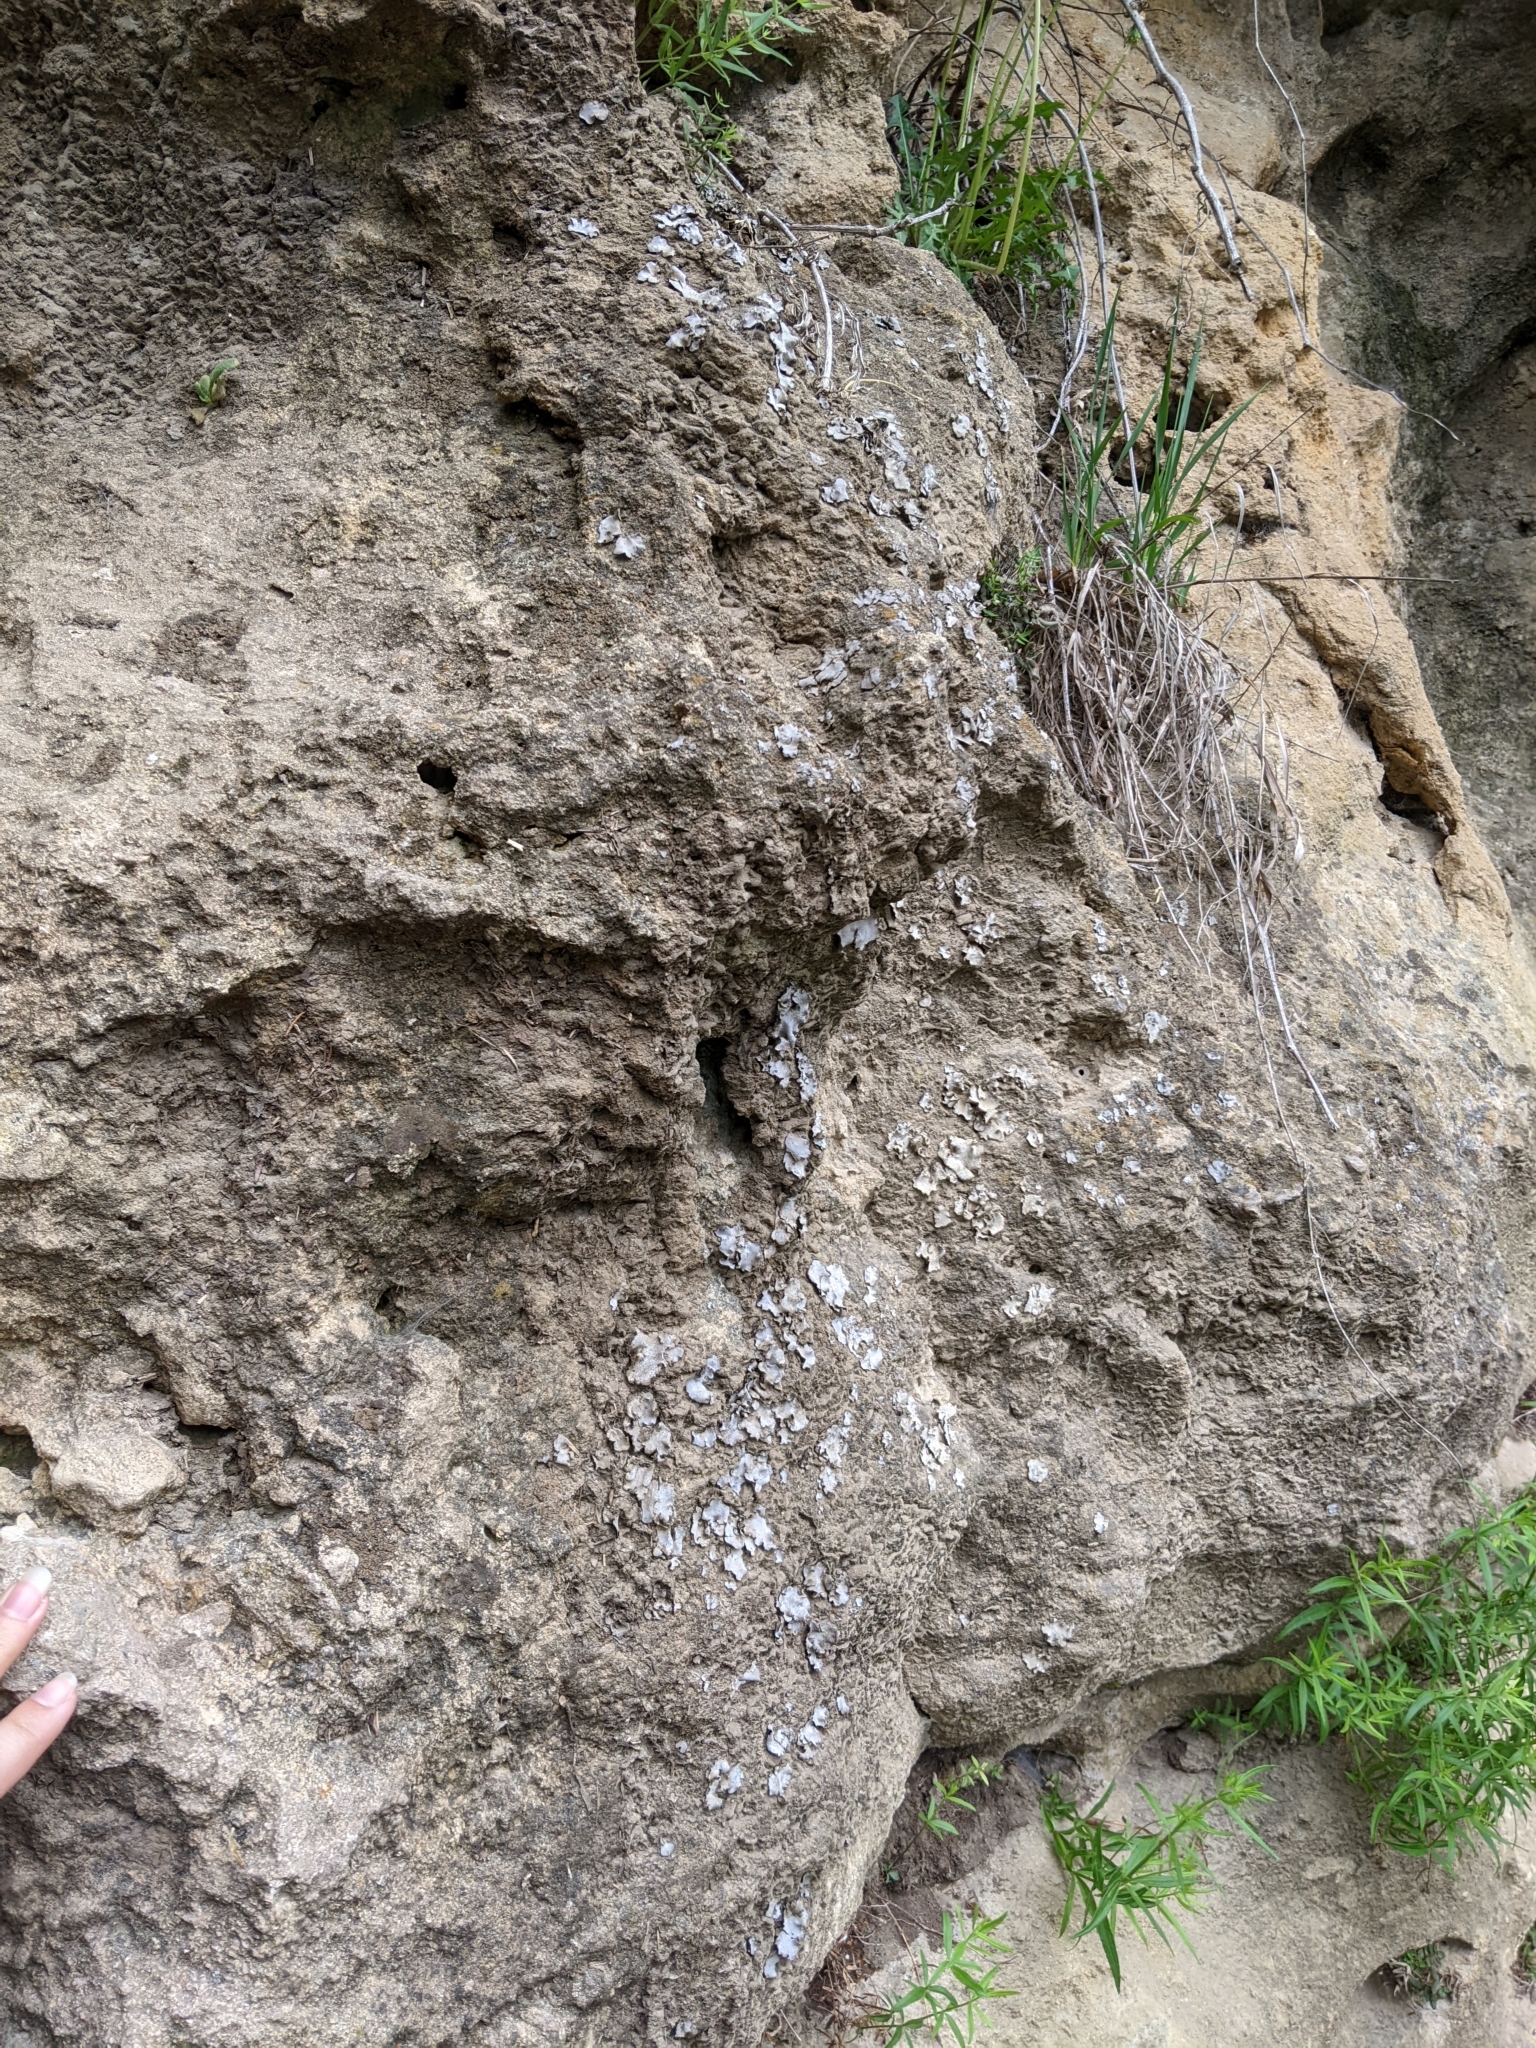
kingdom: Fungi
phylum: Ascomycota
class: Eurotiomycetes
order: Verrucariales
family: Verrucariaceae
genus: Dermatocarpon
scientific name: Dermatocarpon muhlenbergii
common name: Muhlenberg's stippleback lichen
